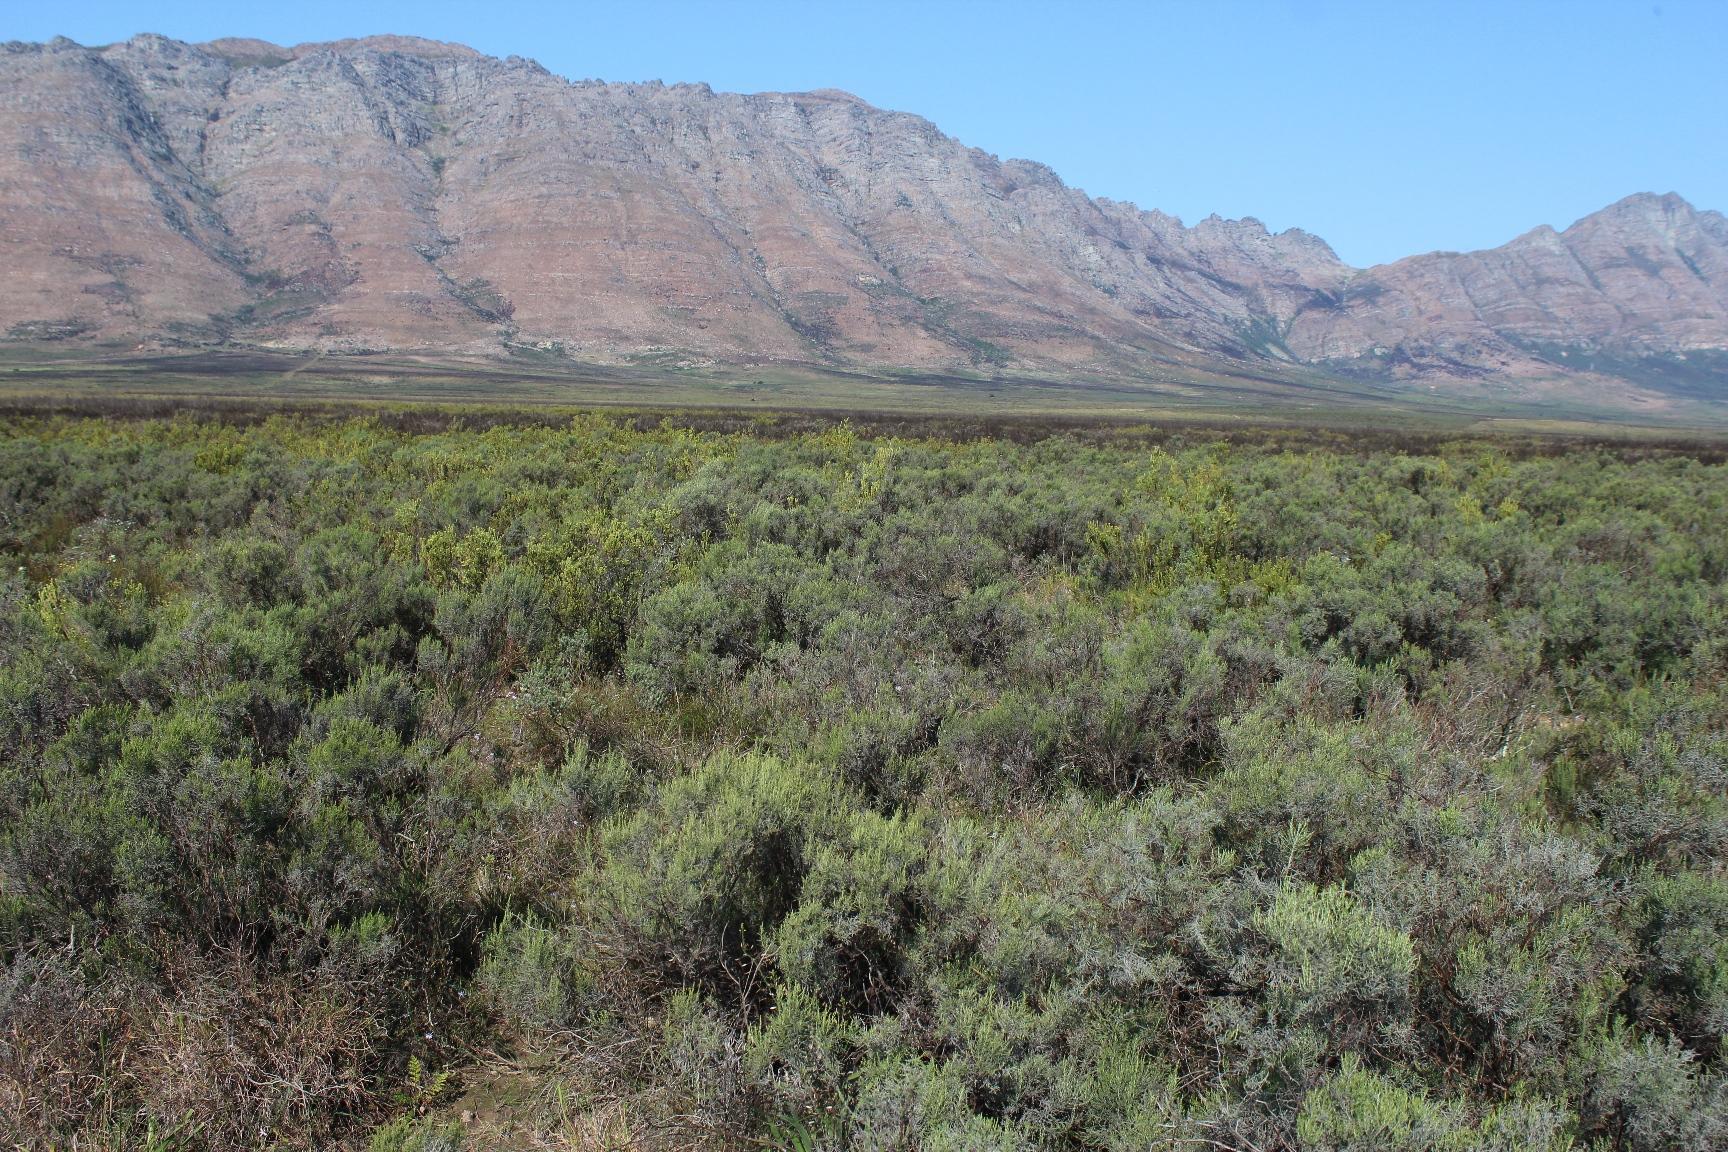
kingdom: Plantae
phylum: Tracheophyta
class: Magnoliopsida
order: Asterales
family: Asteraceae
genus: Dicerothamnus
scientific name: Dicerothamnus rhinocerotis
